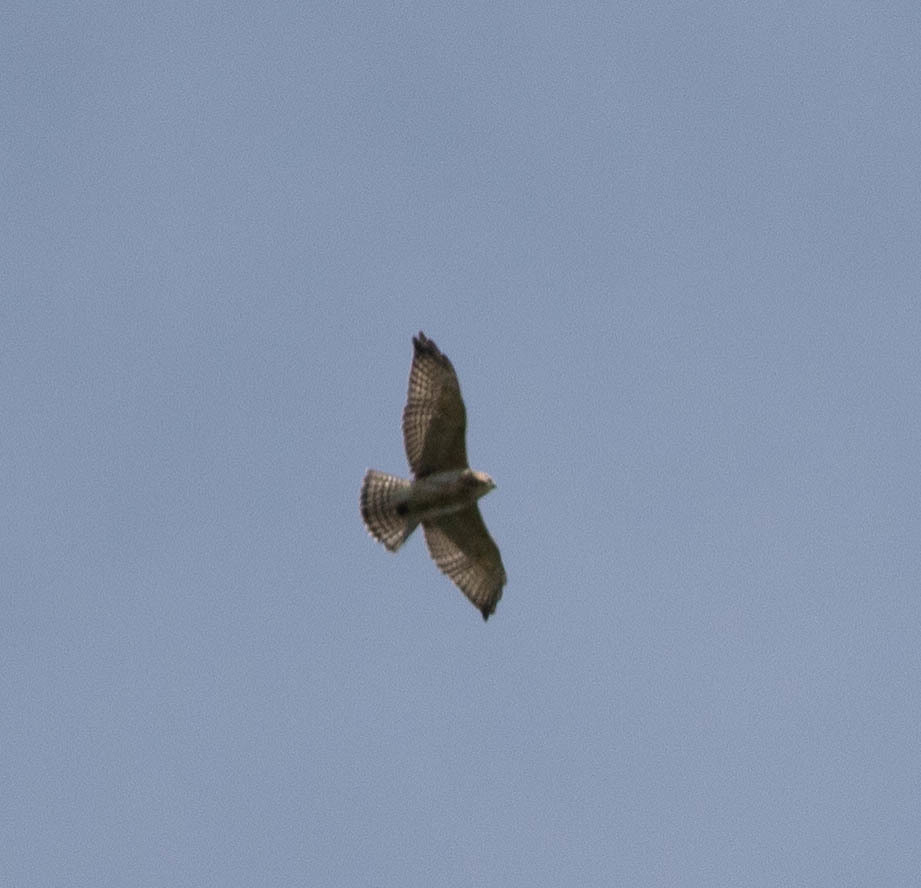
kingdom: Animalia
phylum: Chordata
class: Aves
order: Accipitriformes
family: Accipitridae
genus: Buteo
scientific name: Buteo platypterus
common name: Broad-winged hawk
